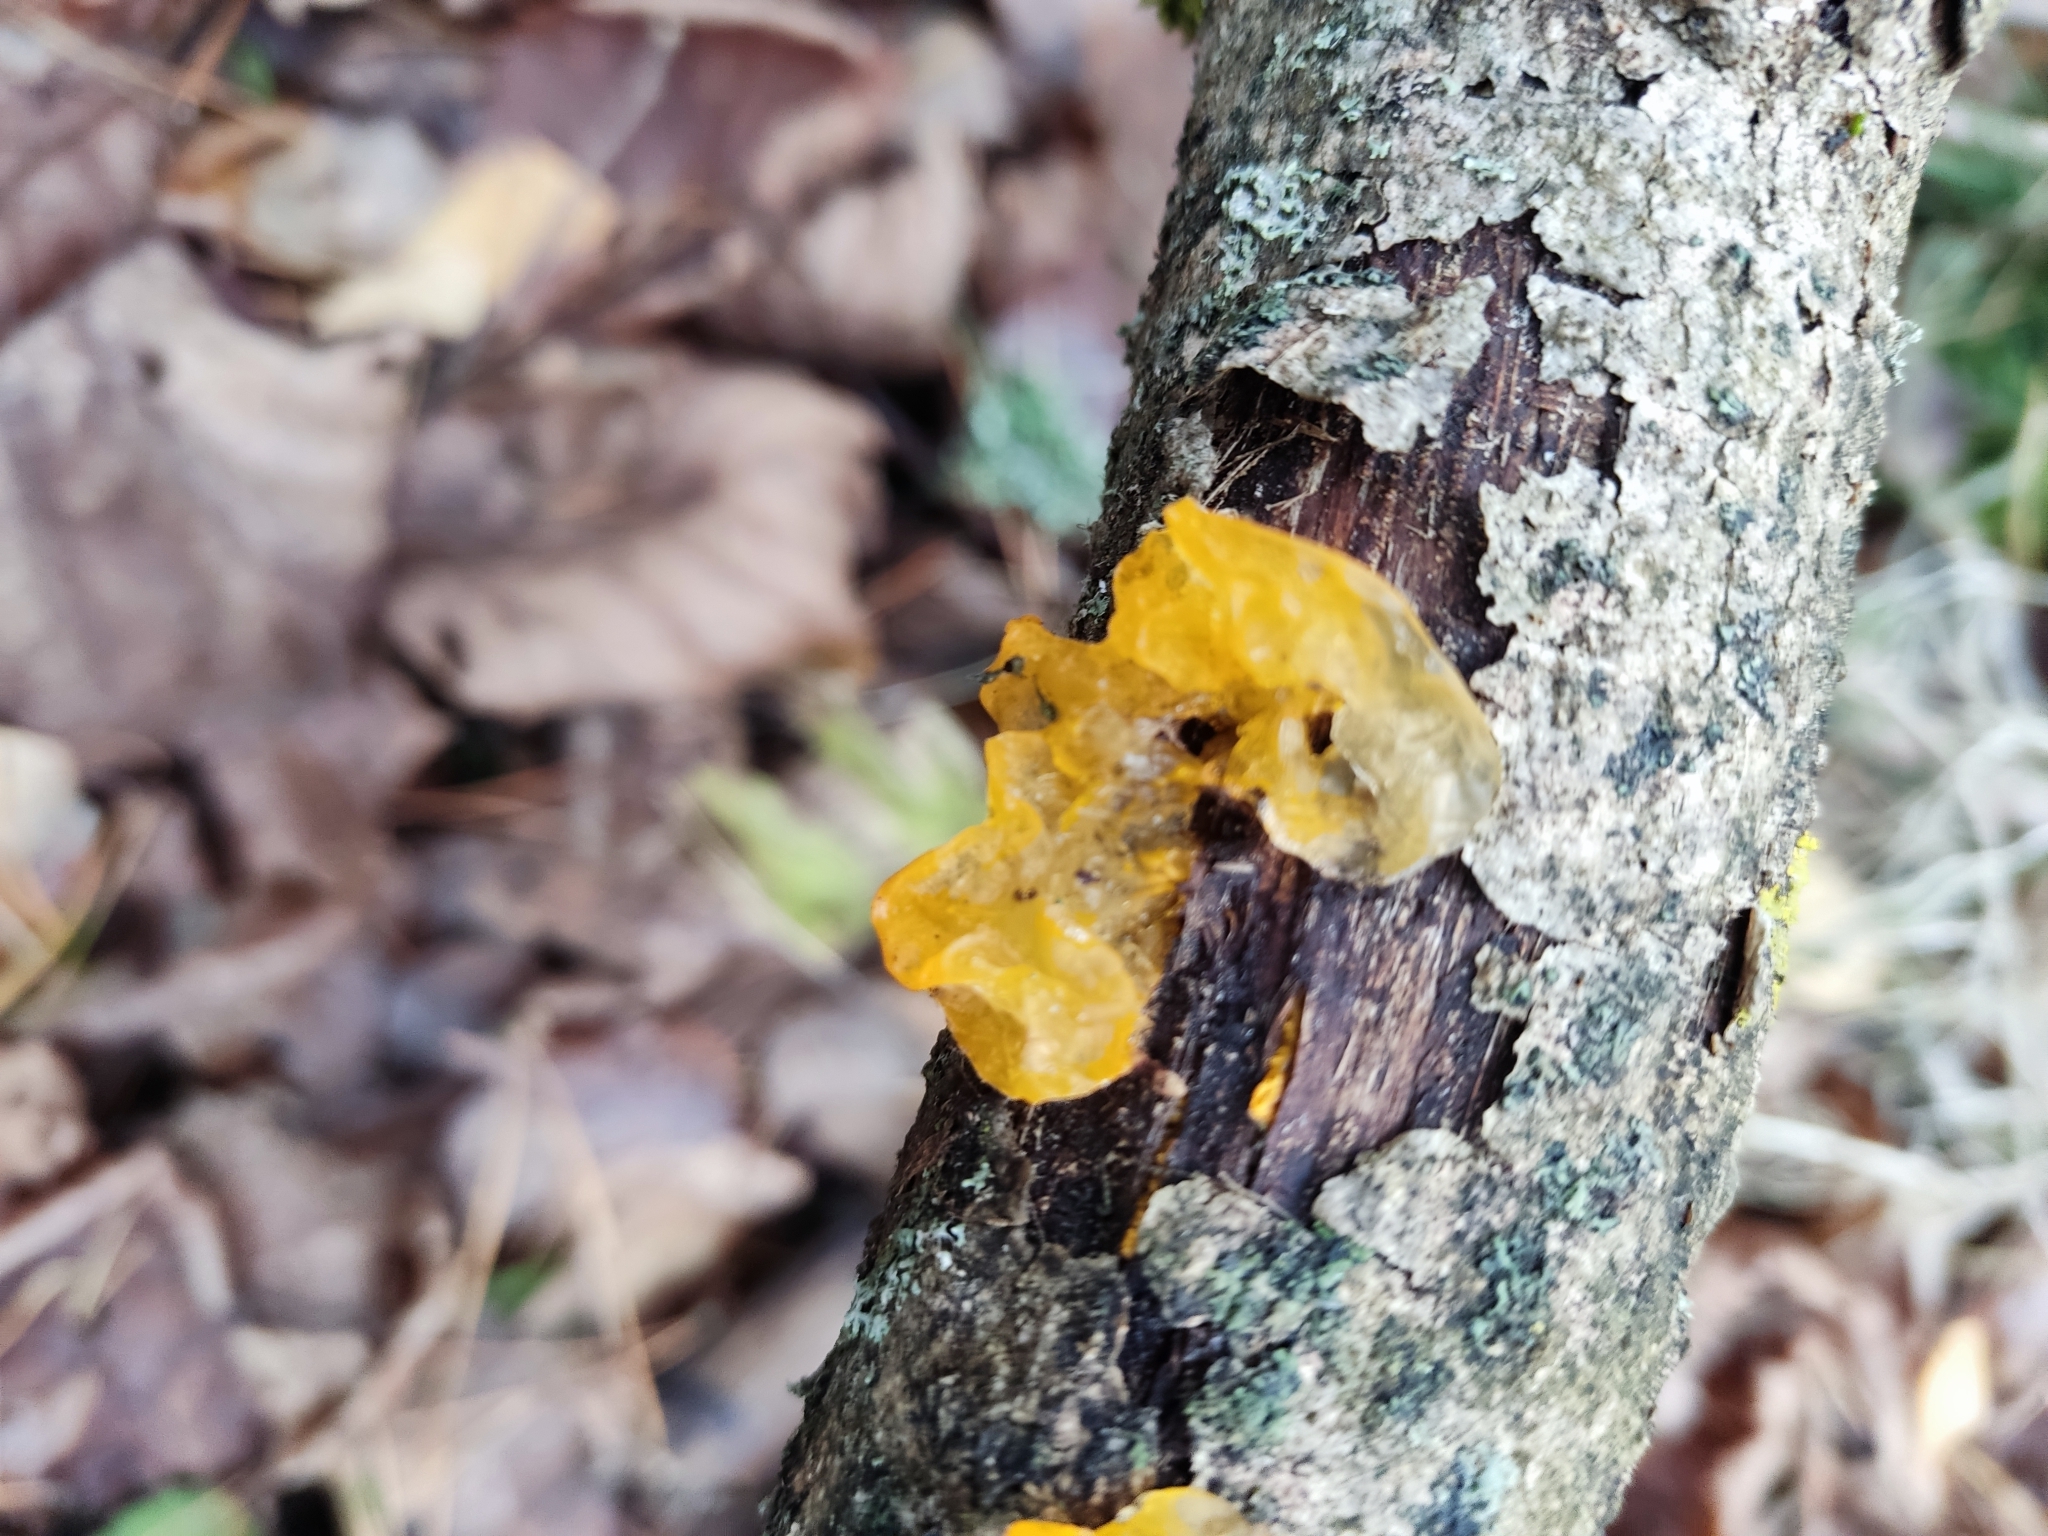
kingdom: Fungi
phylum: Basidiomycota
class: Tremellomycetes
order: Tremellales
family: Tremellaceae
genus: Tremella
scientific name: Tremella mesenterica
